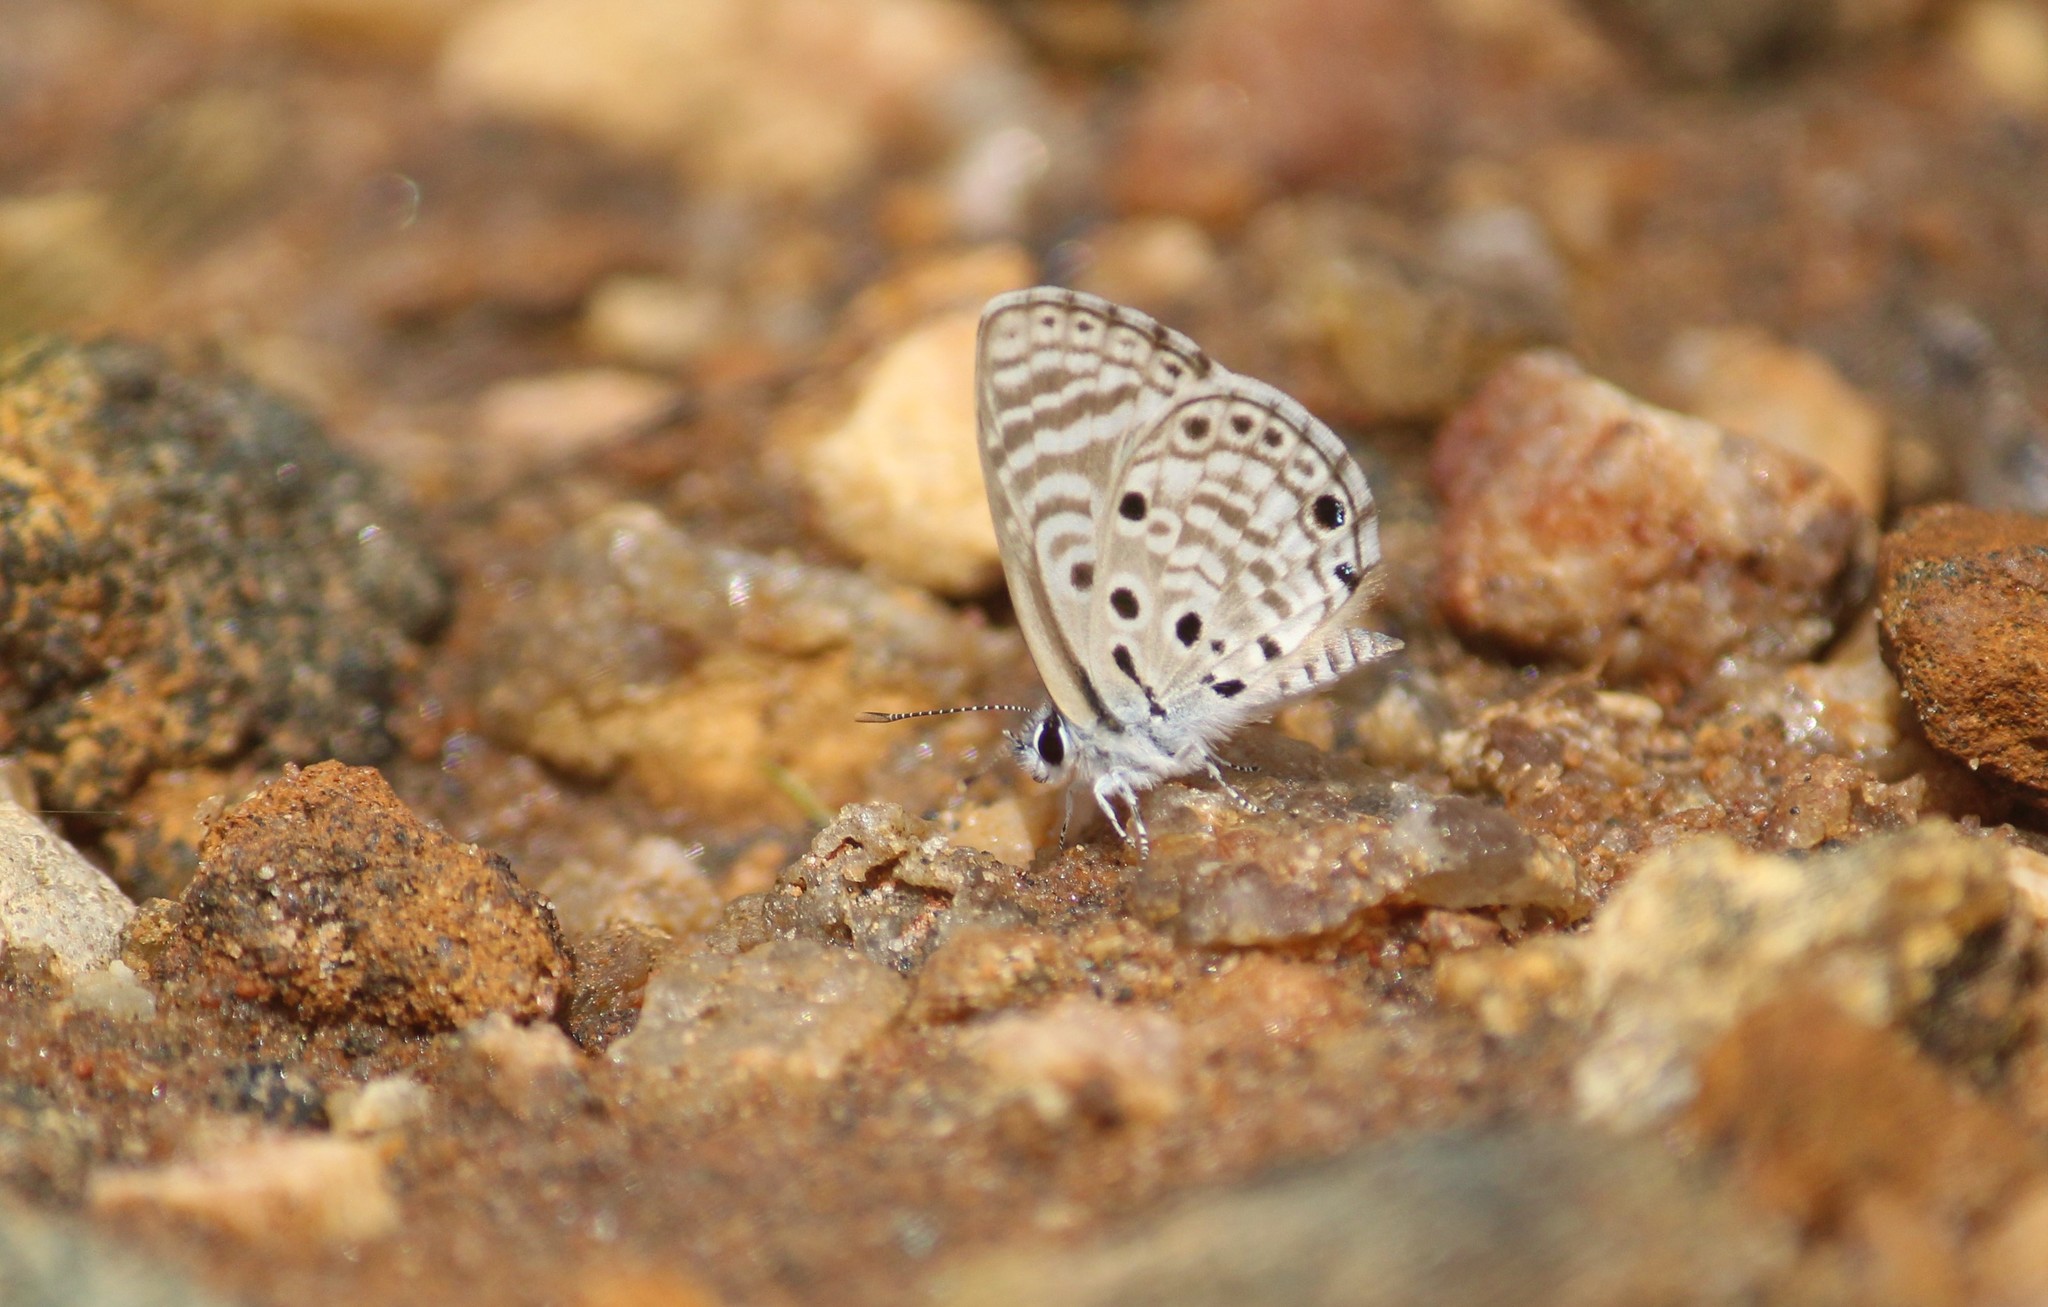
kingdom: Animalia
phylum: Arthropoda
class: Insecta
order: Lepidoptera
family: Lycaenidae
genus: Azanus
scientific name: Azanus jesous
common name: African babul blue
